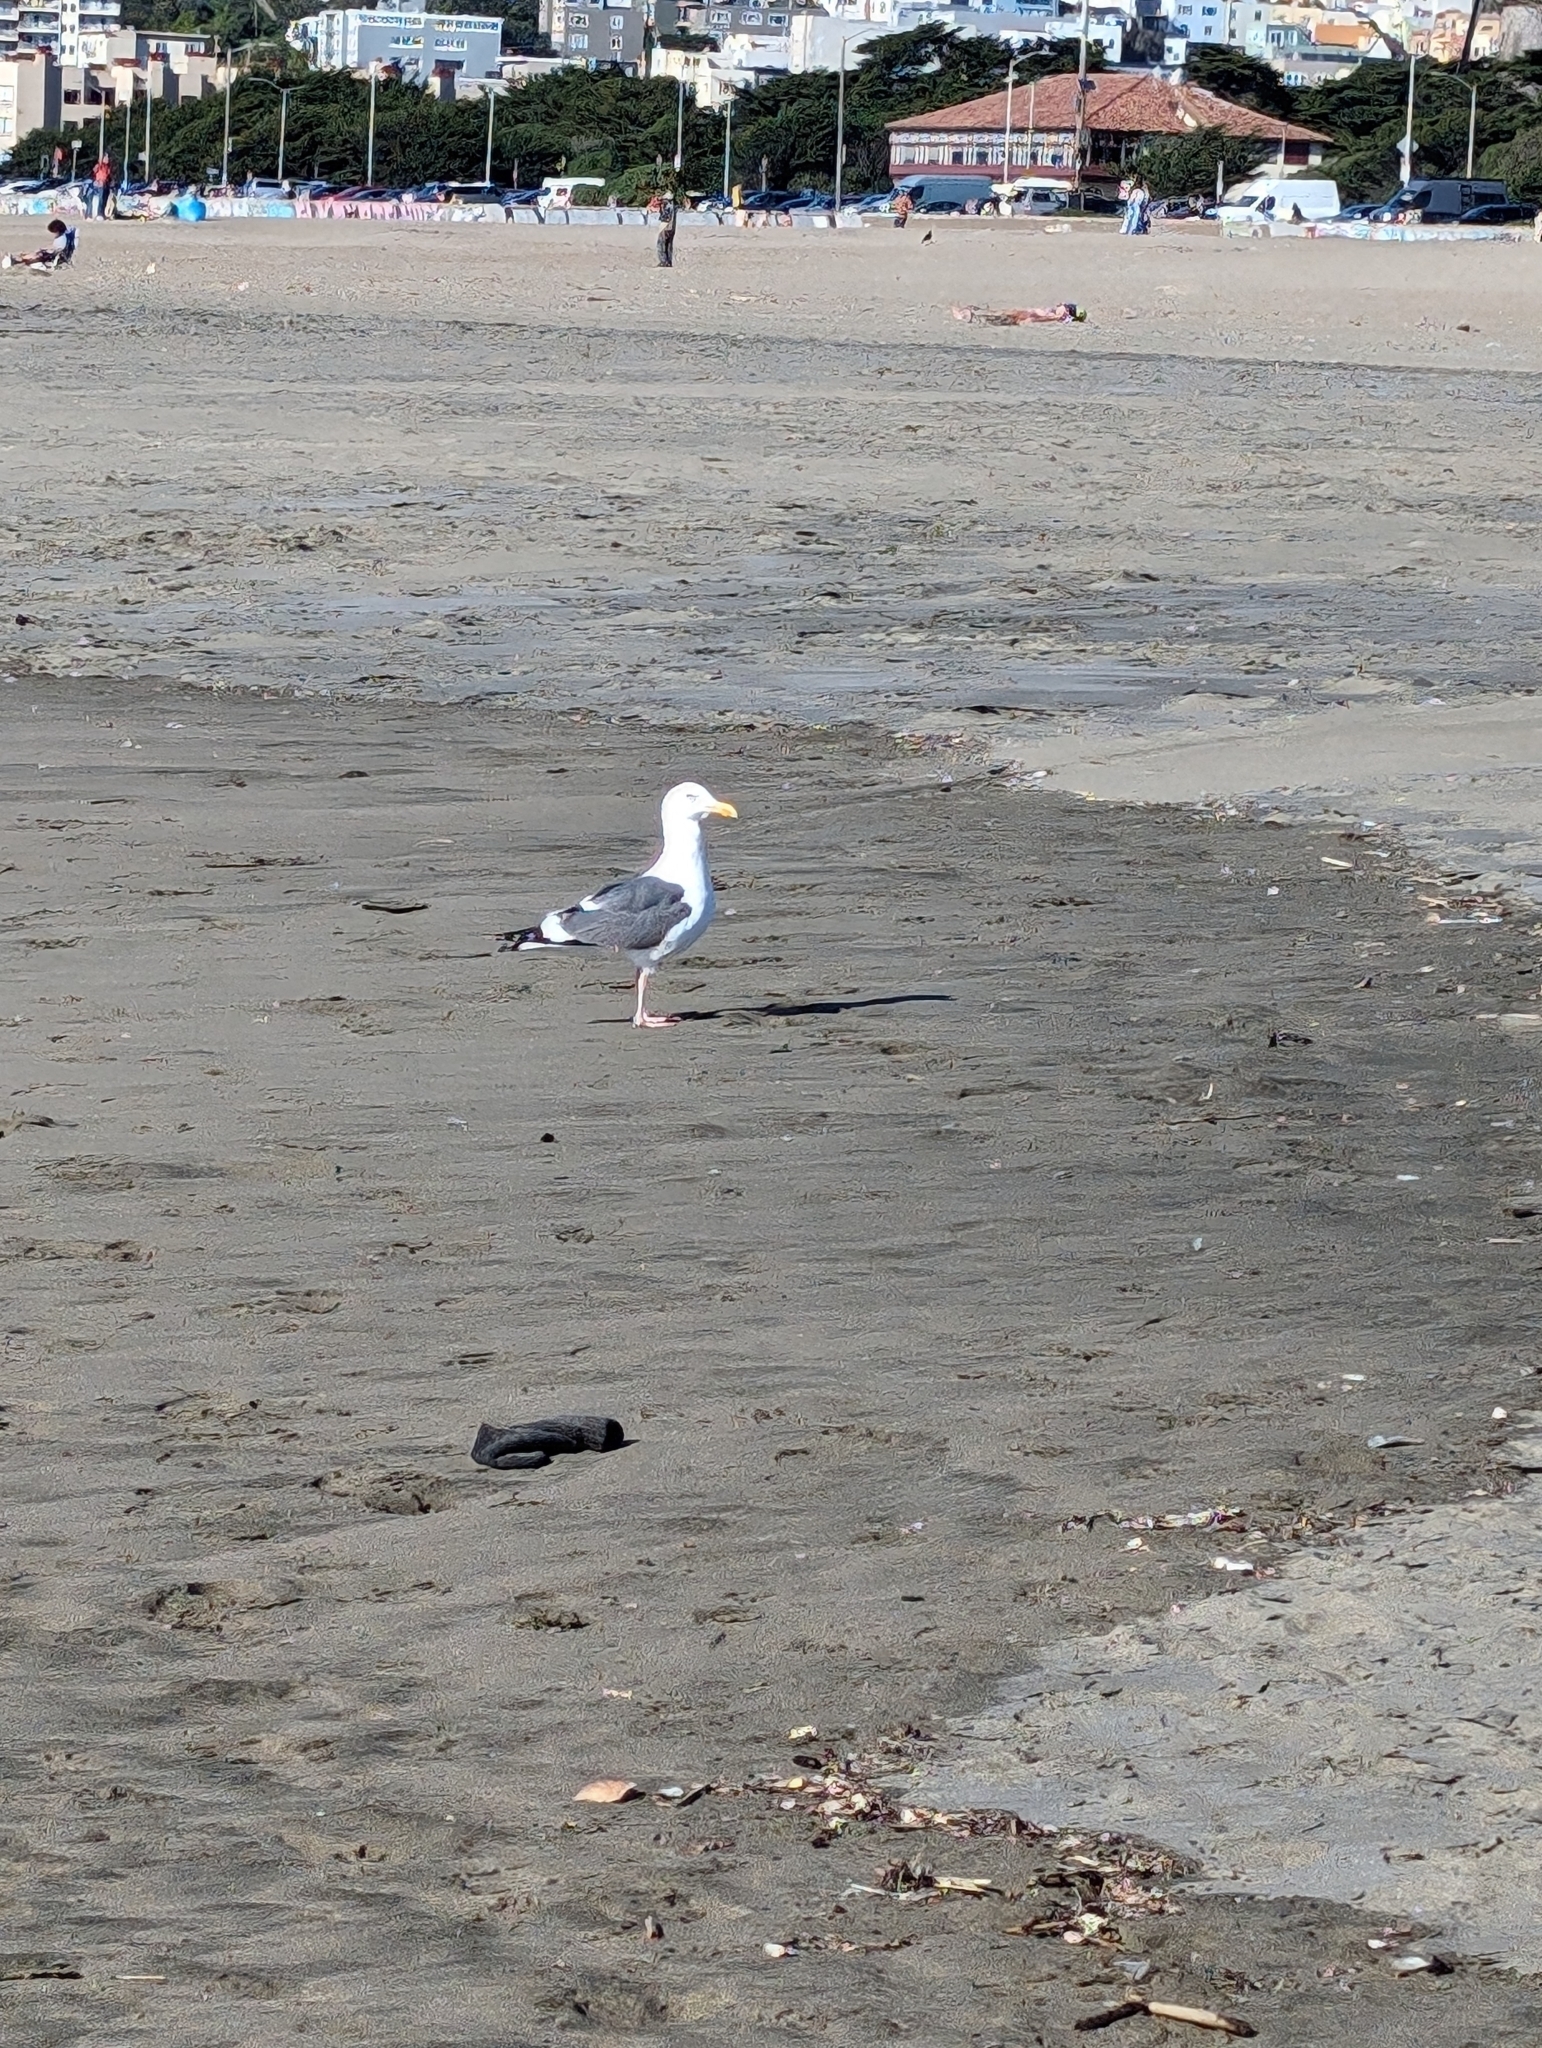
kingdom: Animalia
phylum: Chordata
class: Aves
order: Charadriiformes
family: Laridae
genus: Larus
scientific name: Larus occidentalis
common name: Western gull
